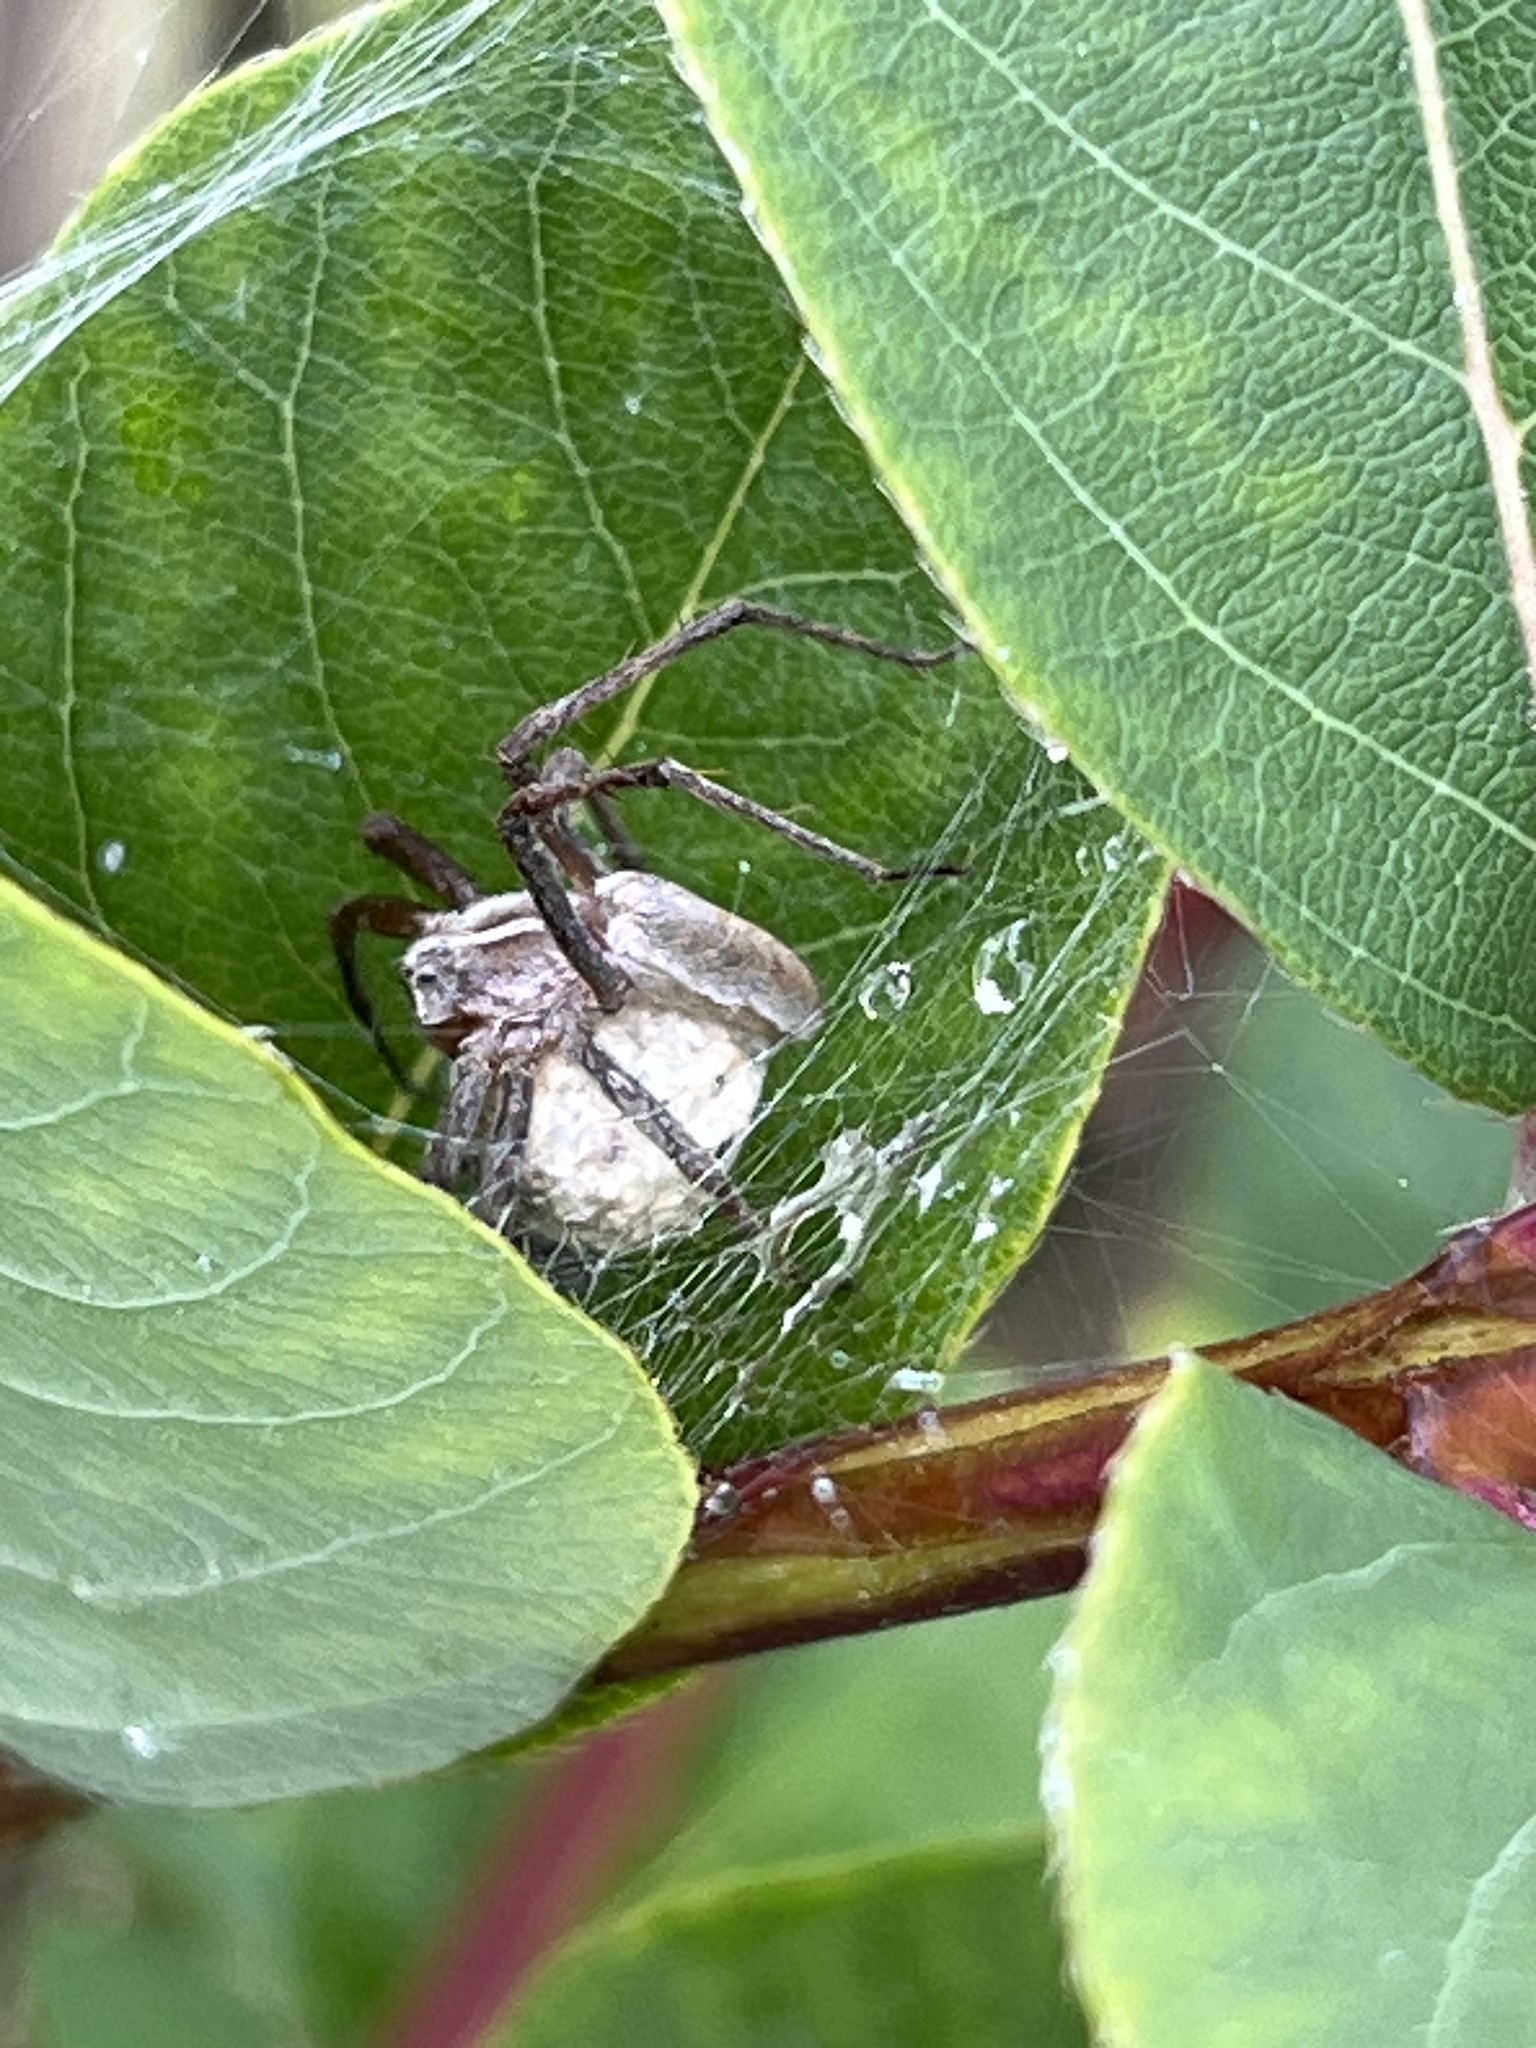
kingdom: Animalia
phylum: Arthropoda
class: Arachnida
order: Araneae
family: Pisauridae
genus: Pisaura
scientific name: Pisaura mirabilis
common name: Tent spider
